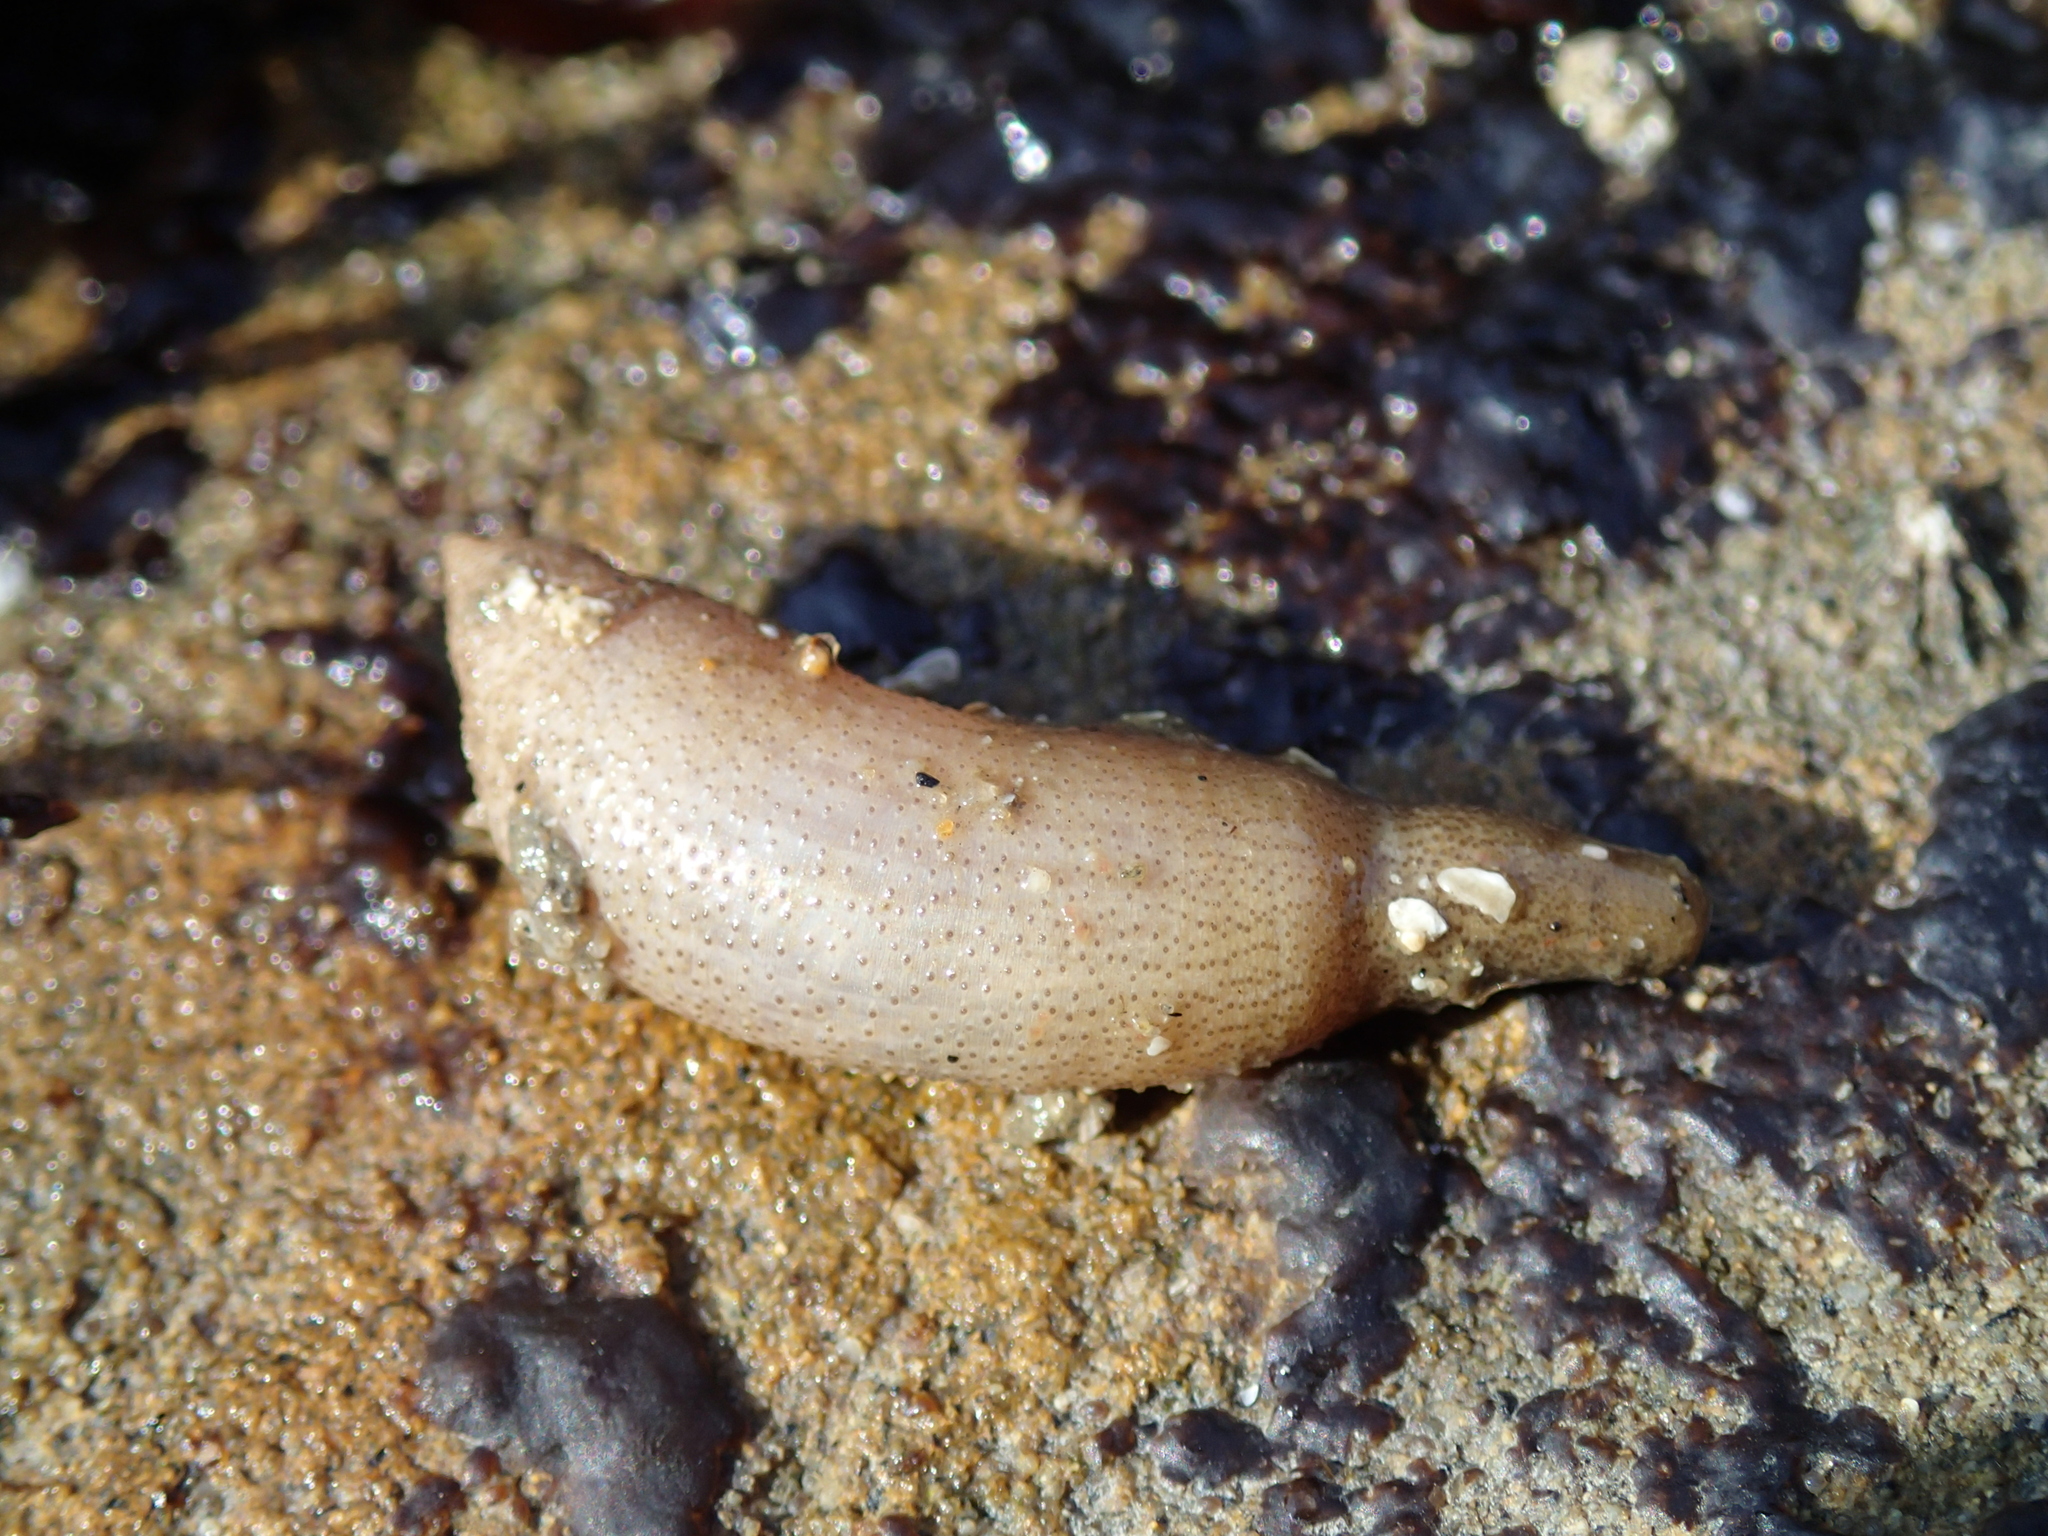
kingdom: Animalia
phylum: Sipuncula
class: Phascolosomatidea
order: Phascolosomatiformes
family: Phascolosomatidae
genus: Phascolosoma
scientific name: Phascolosoma agassizii
